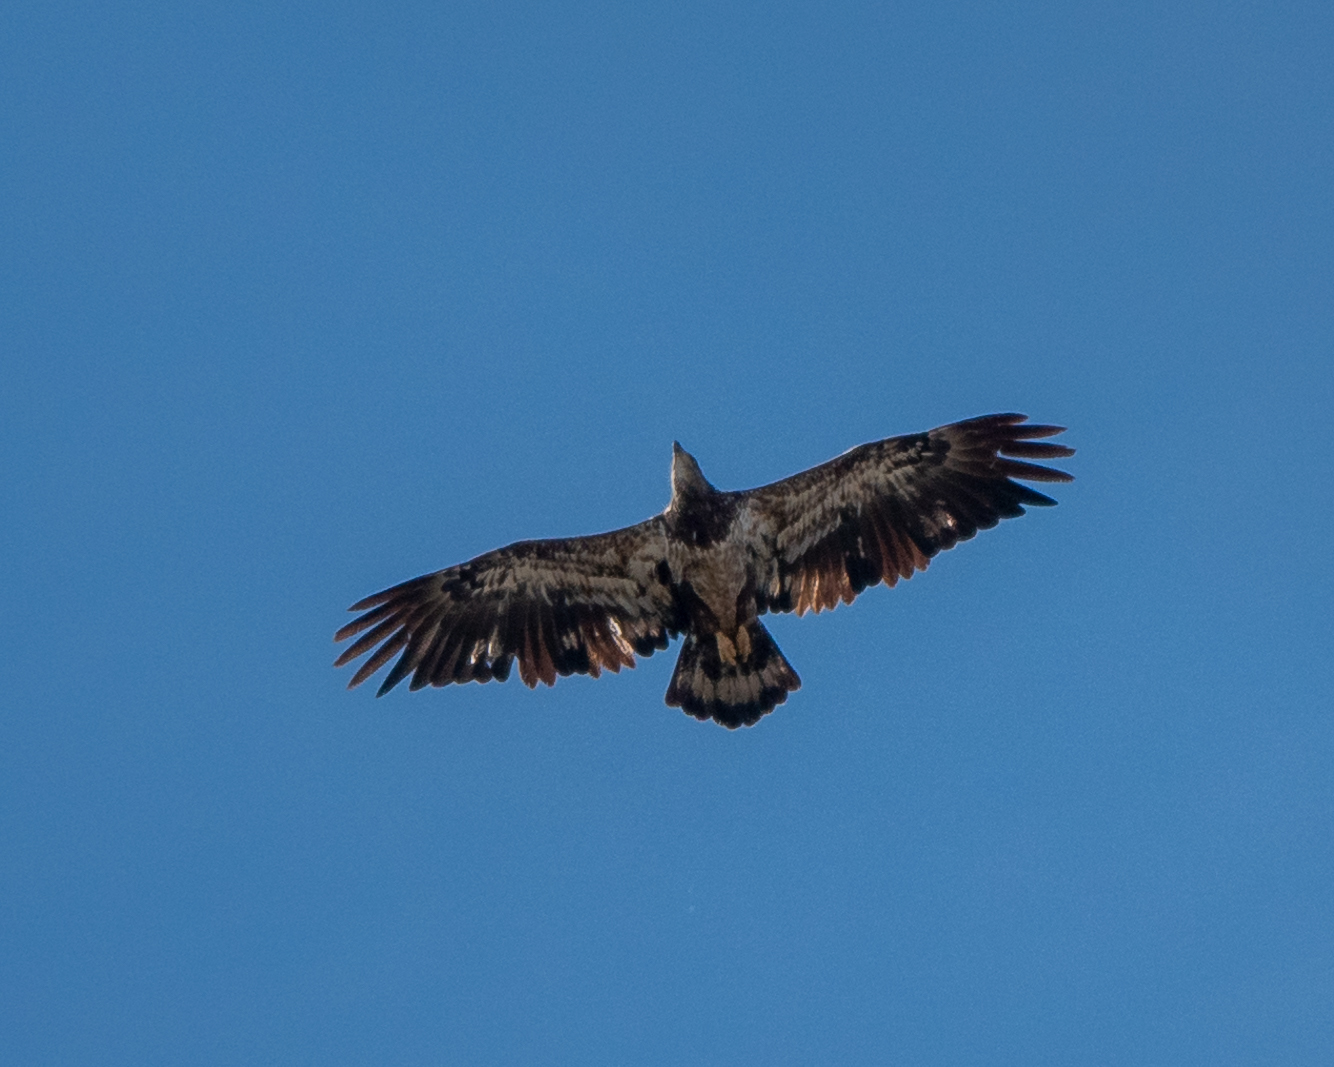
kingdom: Animalia
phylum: Chordata
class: Aves
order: Accipitriformes
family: Accipitridae
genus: Haliaeetus
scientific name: Haliaeetus leucocephalus
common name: Bald eagle
